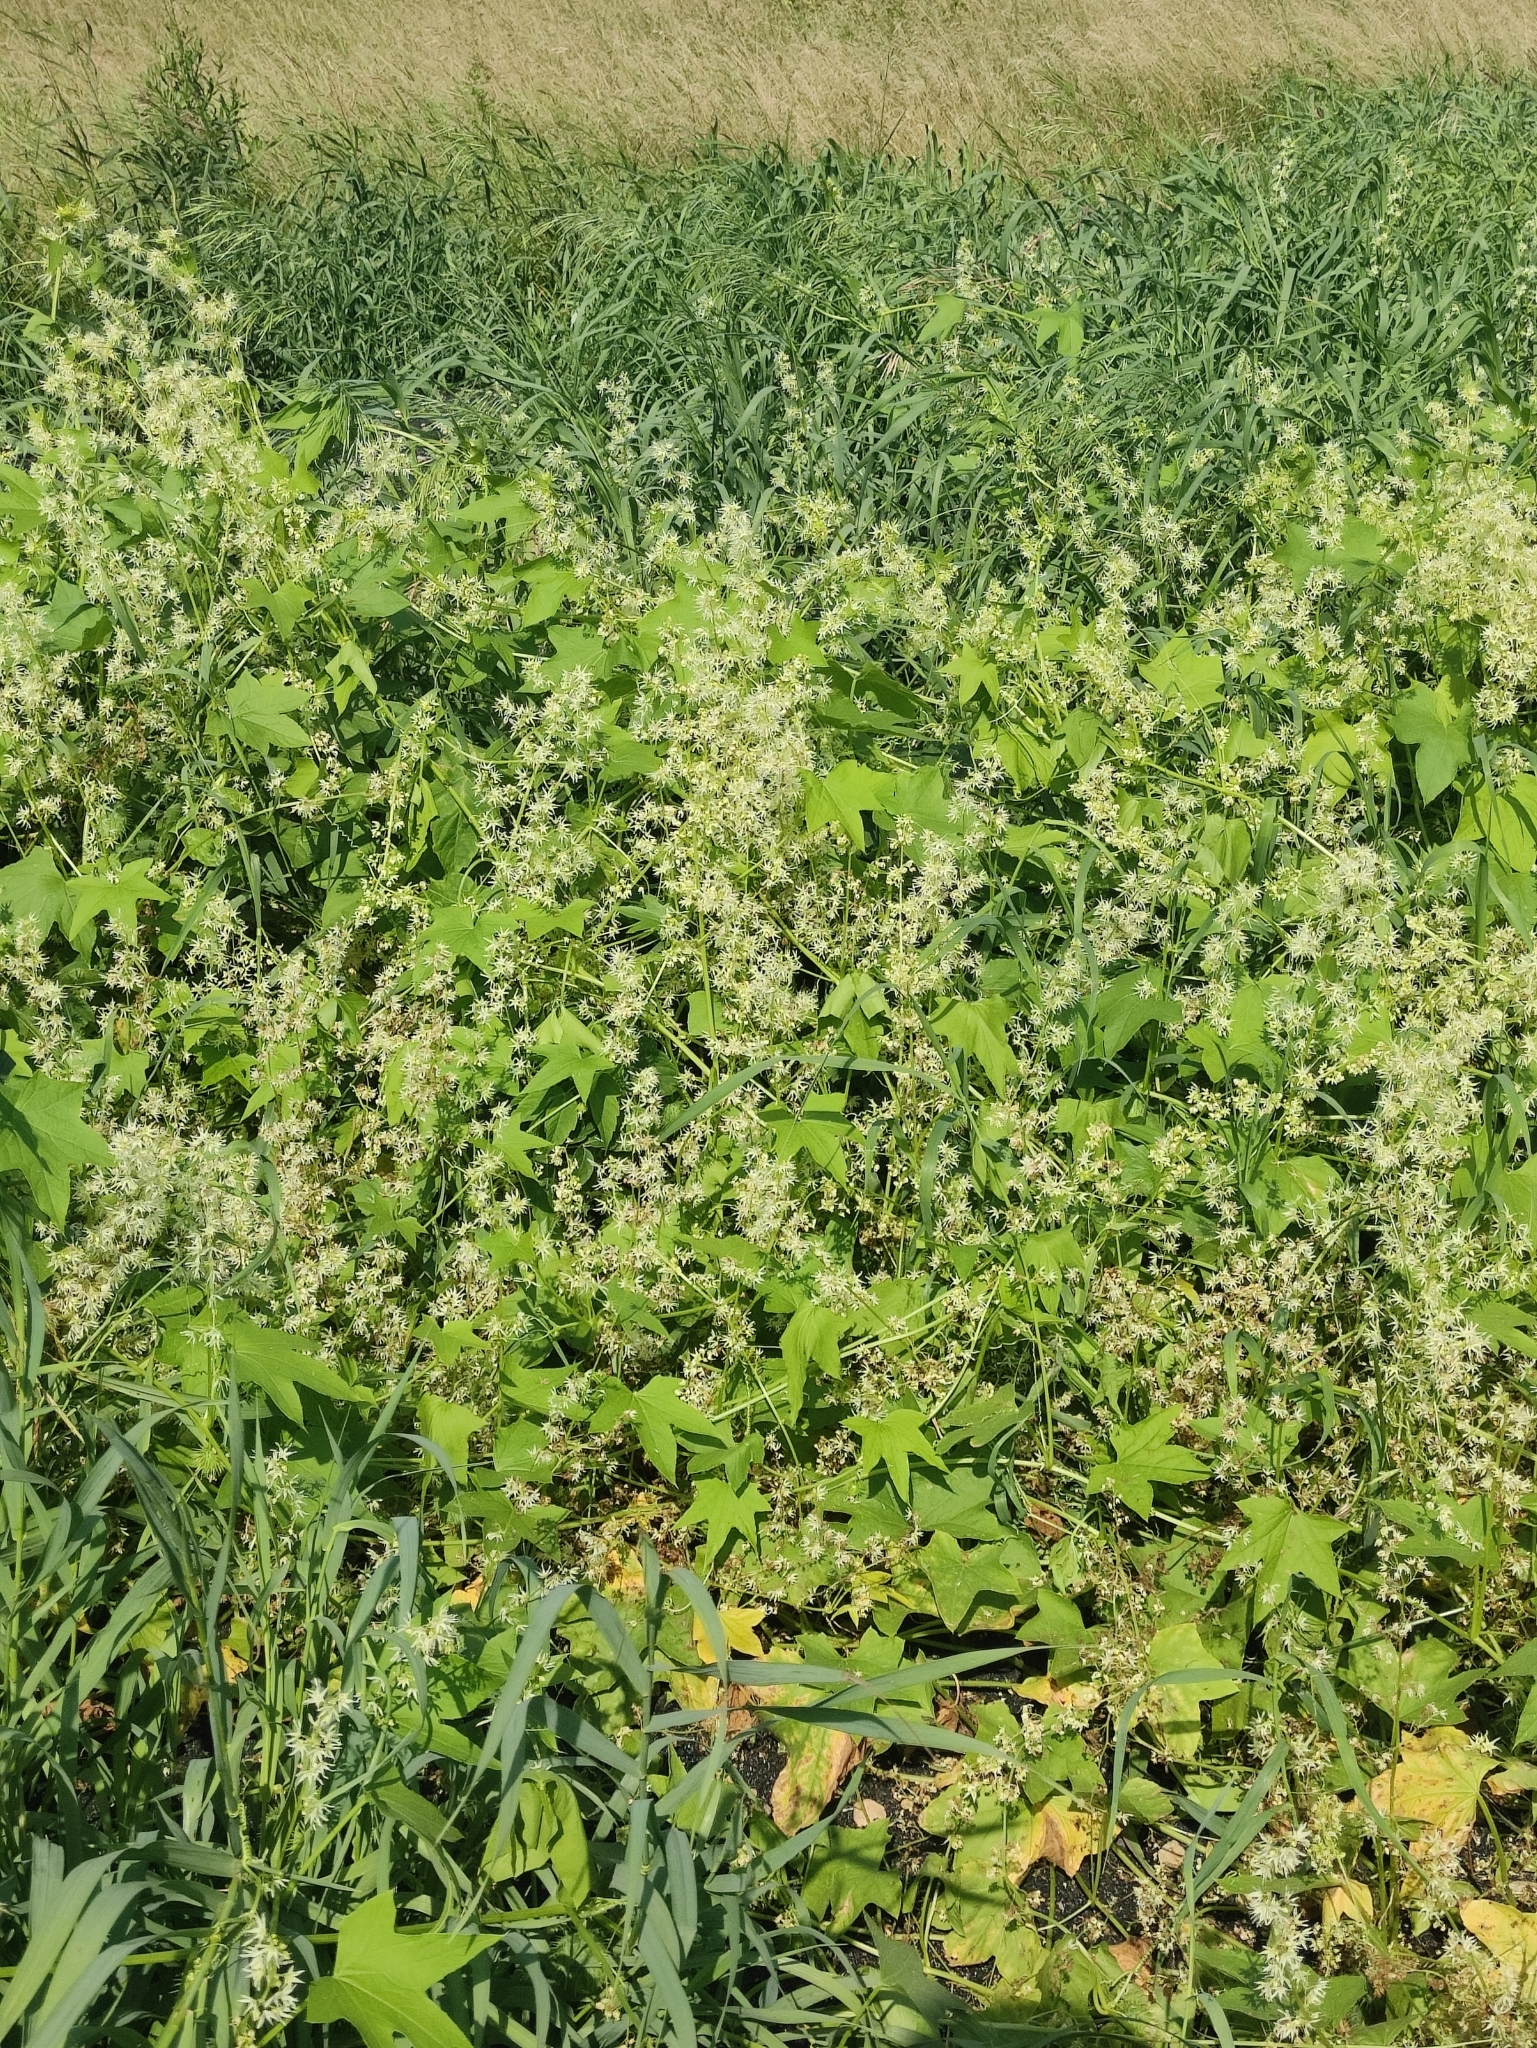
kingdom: Plantae
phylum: Tracheophyta
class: Magnoliopsida
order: Cucurbitales
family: Cucurbitaceae
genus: Echinocystis
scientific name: Echinocystis lobata
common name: Wild cucumber
